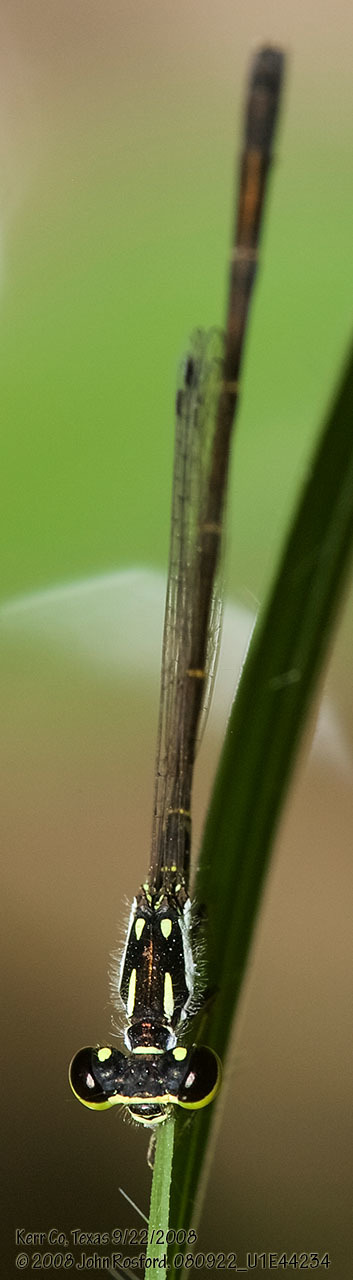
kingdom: Animalia
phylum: Arthropoda
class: Insecta
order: Odonata
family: Coenagrionidae
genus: Ischnura
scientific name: Ischnura posita
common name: Fragile forktail
